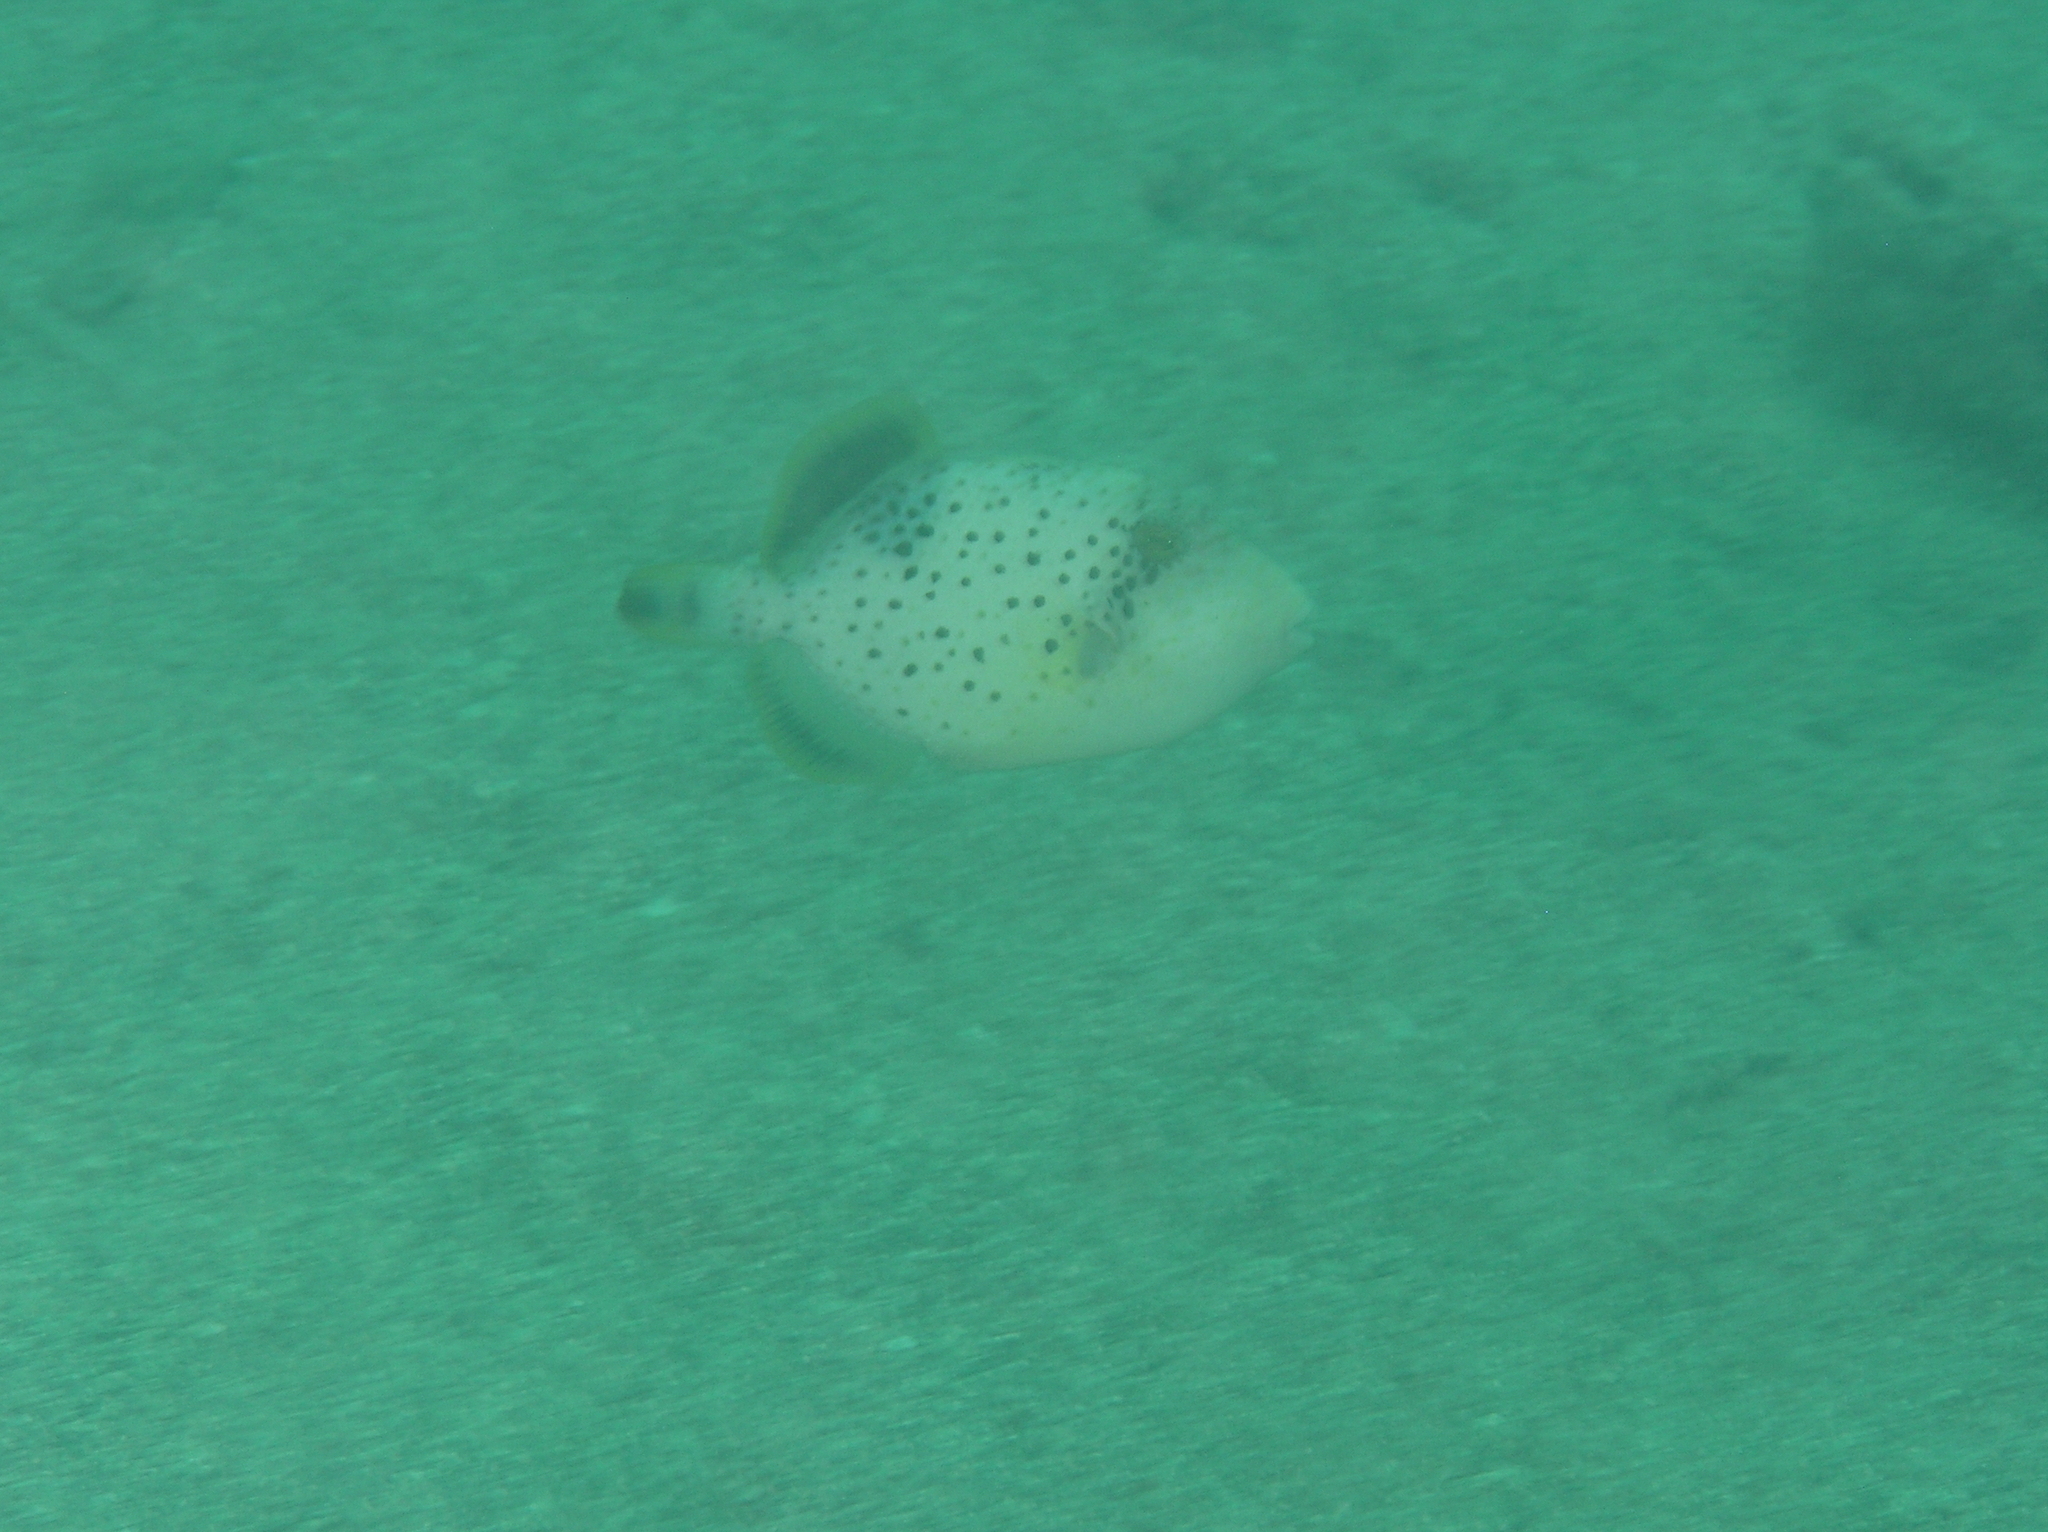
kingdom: Animalia
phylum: Chordata
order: Tetraodontiformes
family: Balistidae
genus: Pseudobalistes
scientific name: Pseudobalistes flavimarginatus
